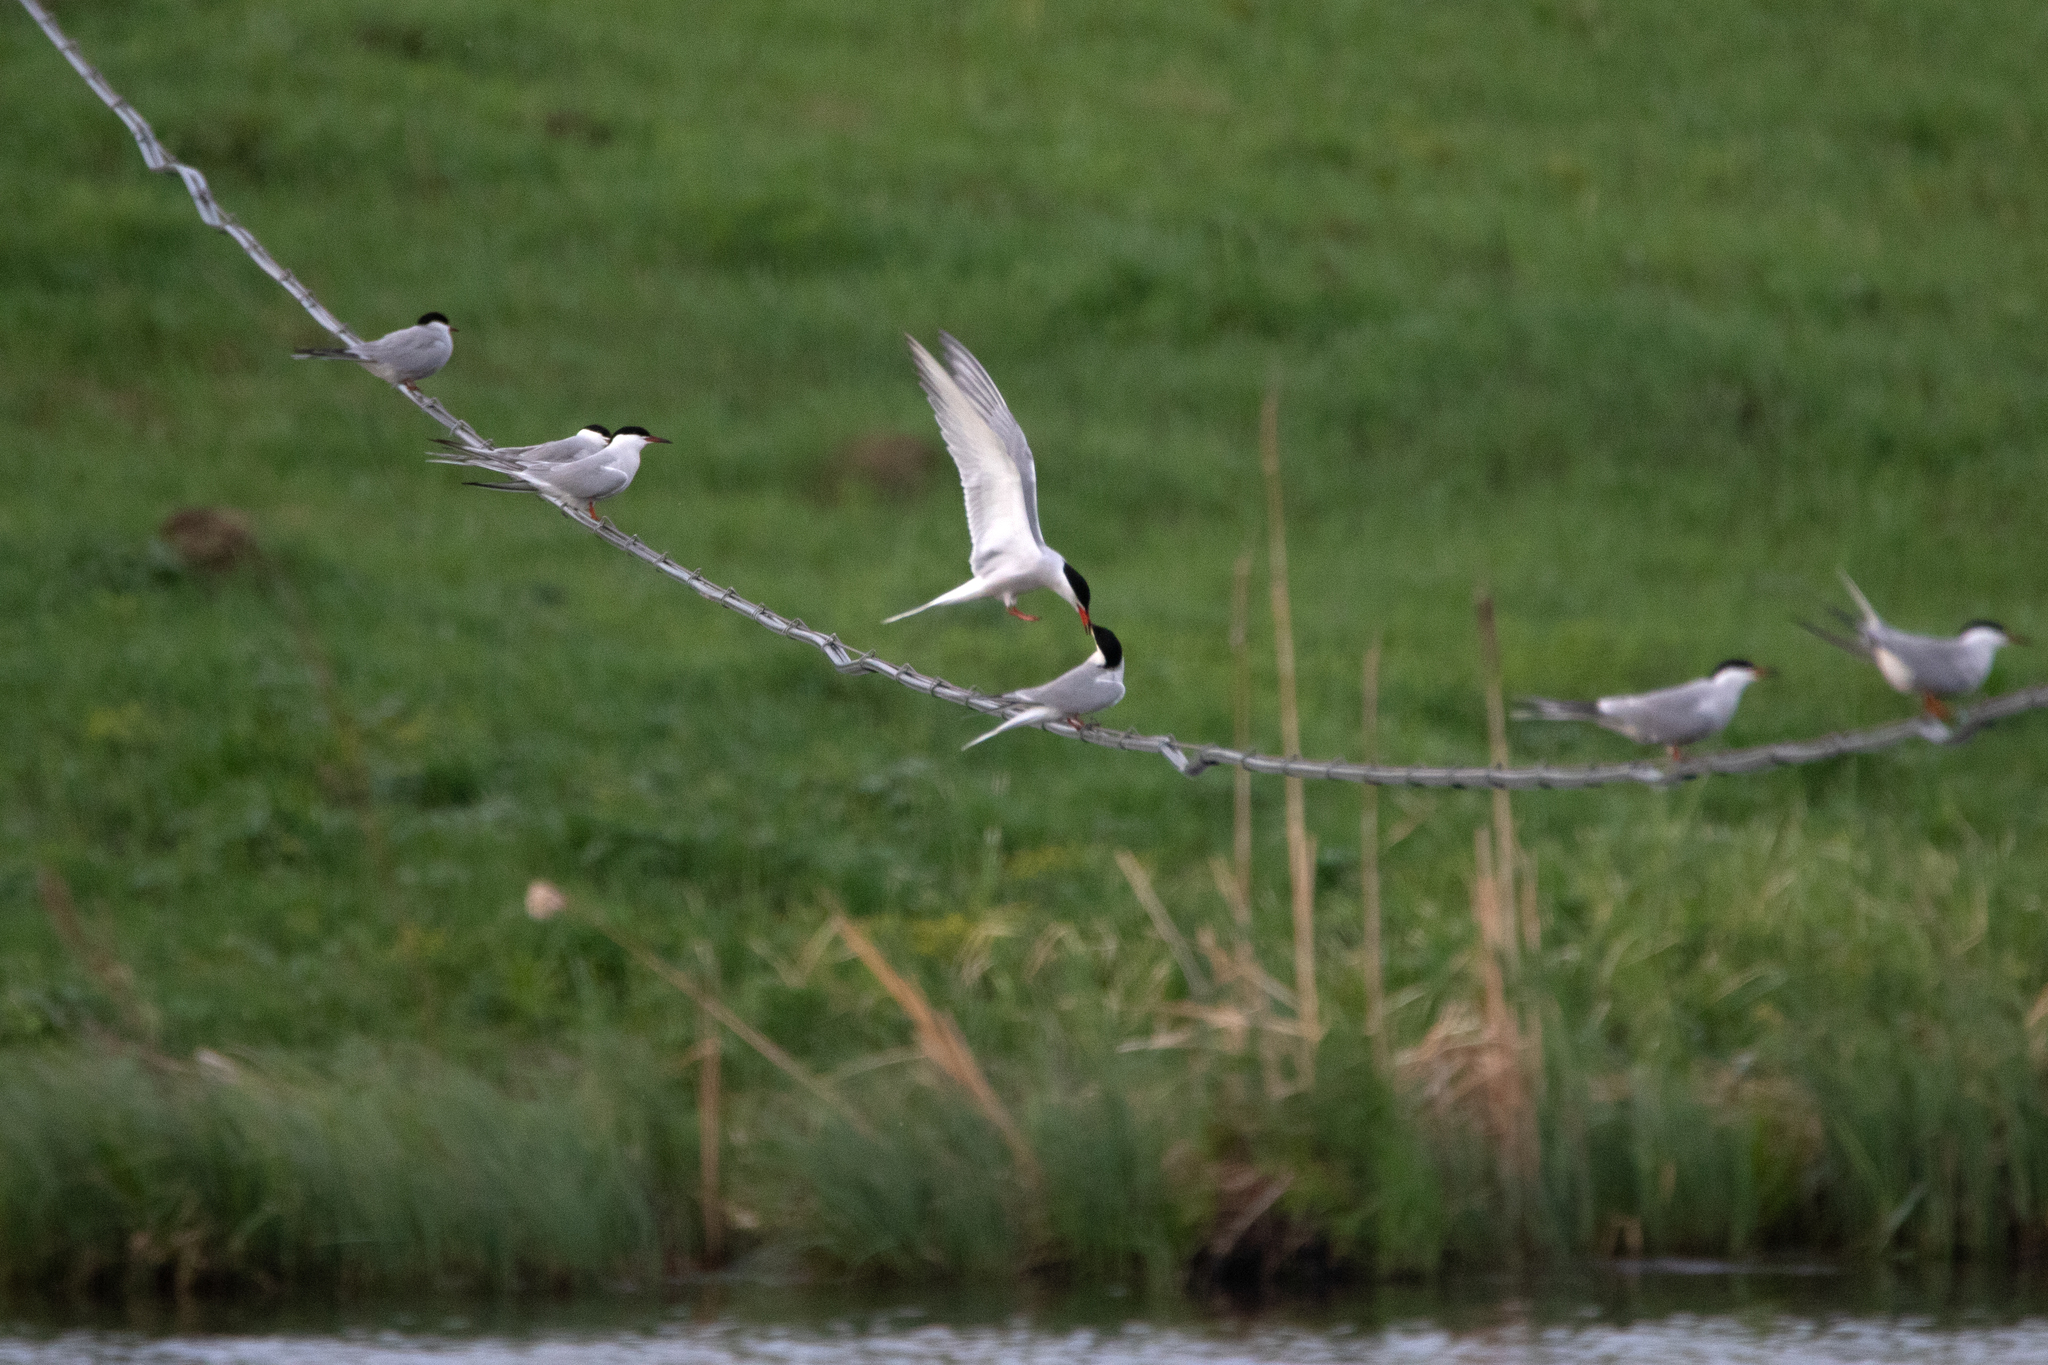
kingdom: Animalia
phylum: Chordata
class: Aves
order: Charadriiformes
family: Laridae
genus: Sterna
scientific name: Sterna hirundo
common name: Common tern
